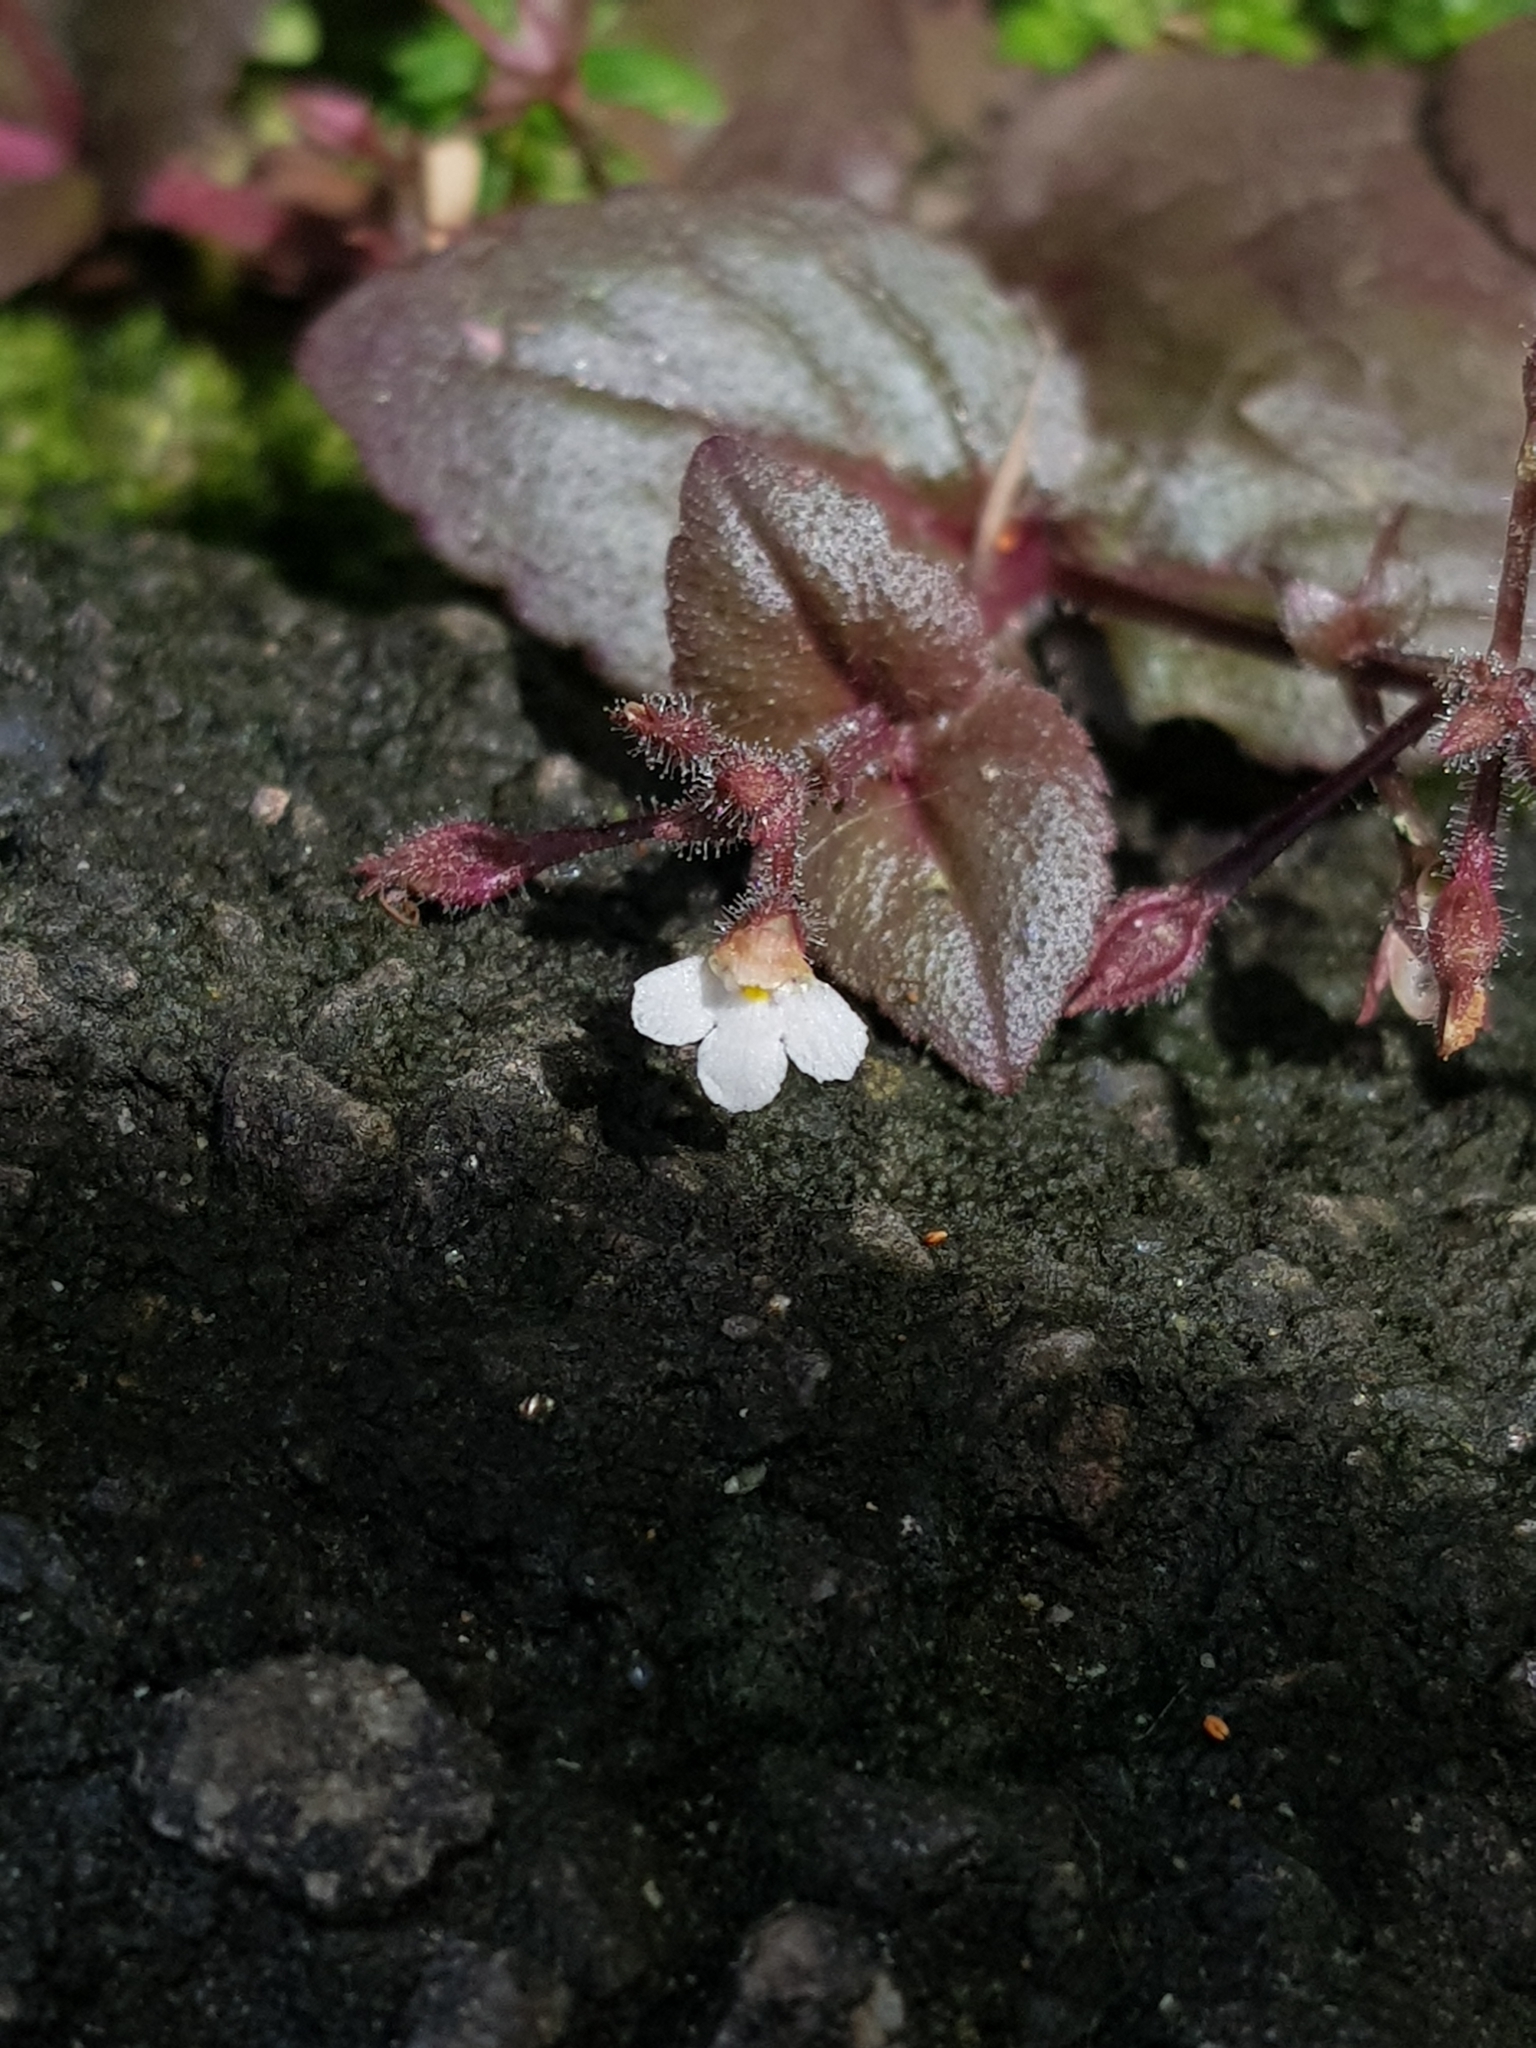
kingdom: Plantae
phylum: Tracheophyta
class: Magnoliopsida
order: Lamiales
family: Linderniaceae
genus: Yamazakia
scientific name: Yamazakia viscosa
